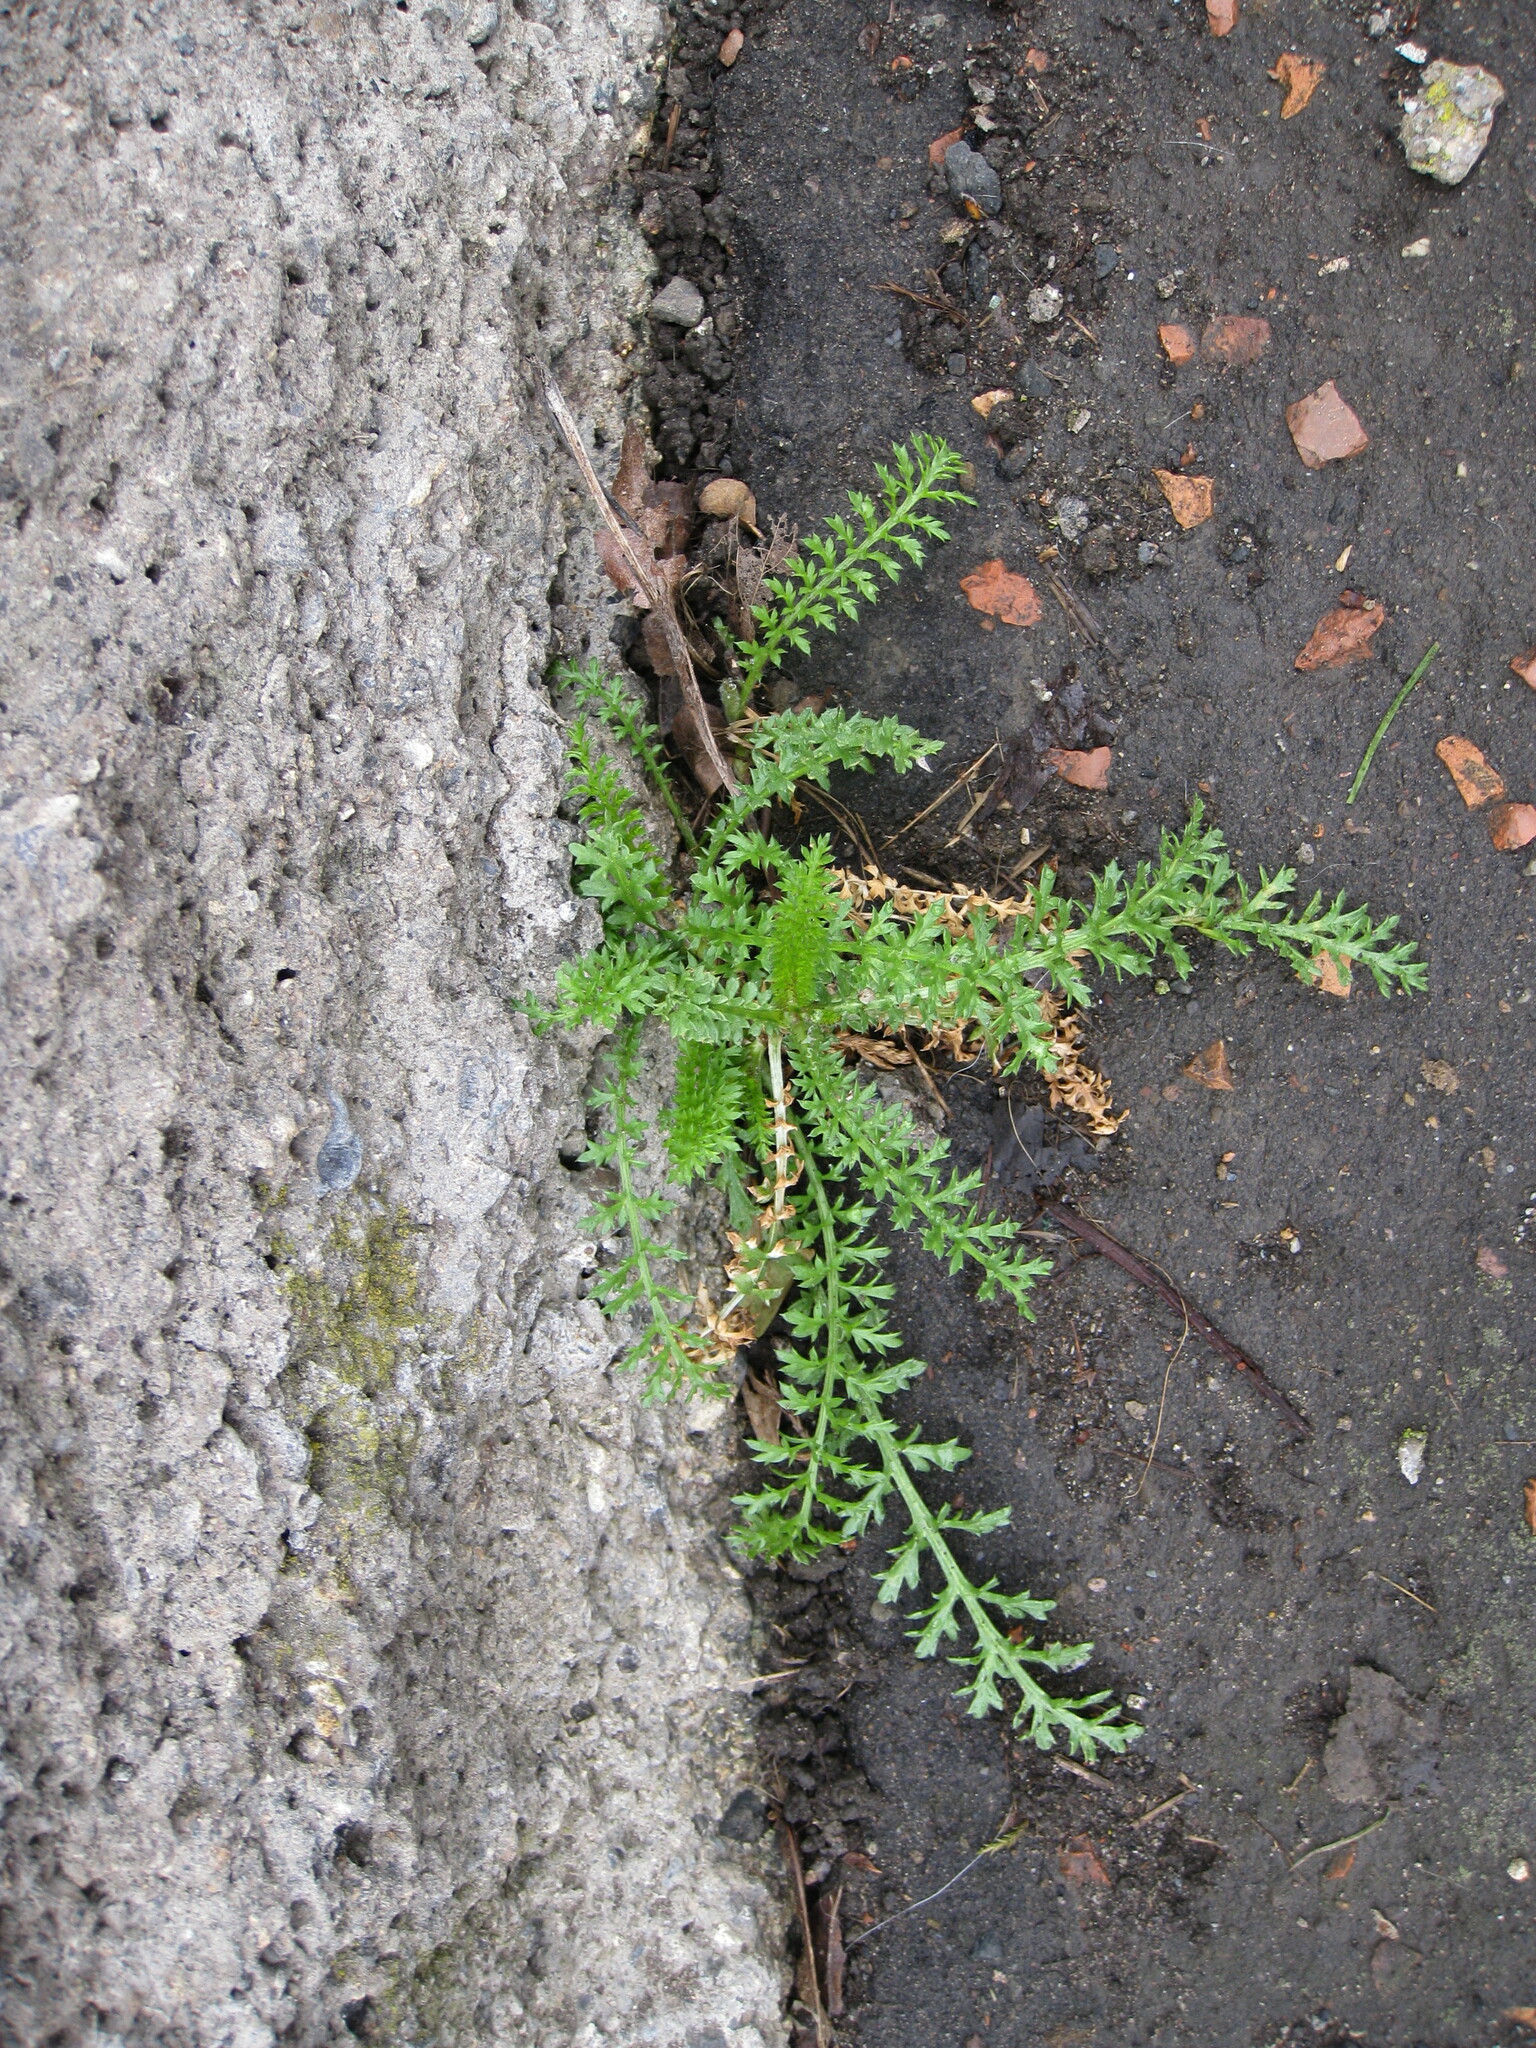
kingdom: Plantae
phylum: Tracheophyta
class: Magnoliopsida
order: Asterales
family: Asteraceae
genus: Achillea
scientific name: Achillea millefolium
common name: Yarrow
